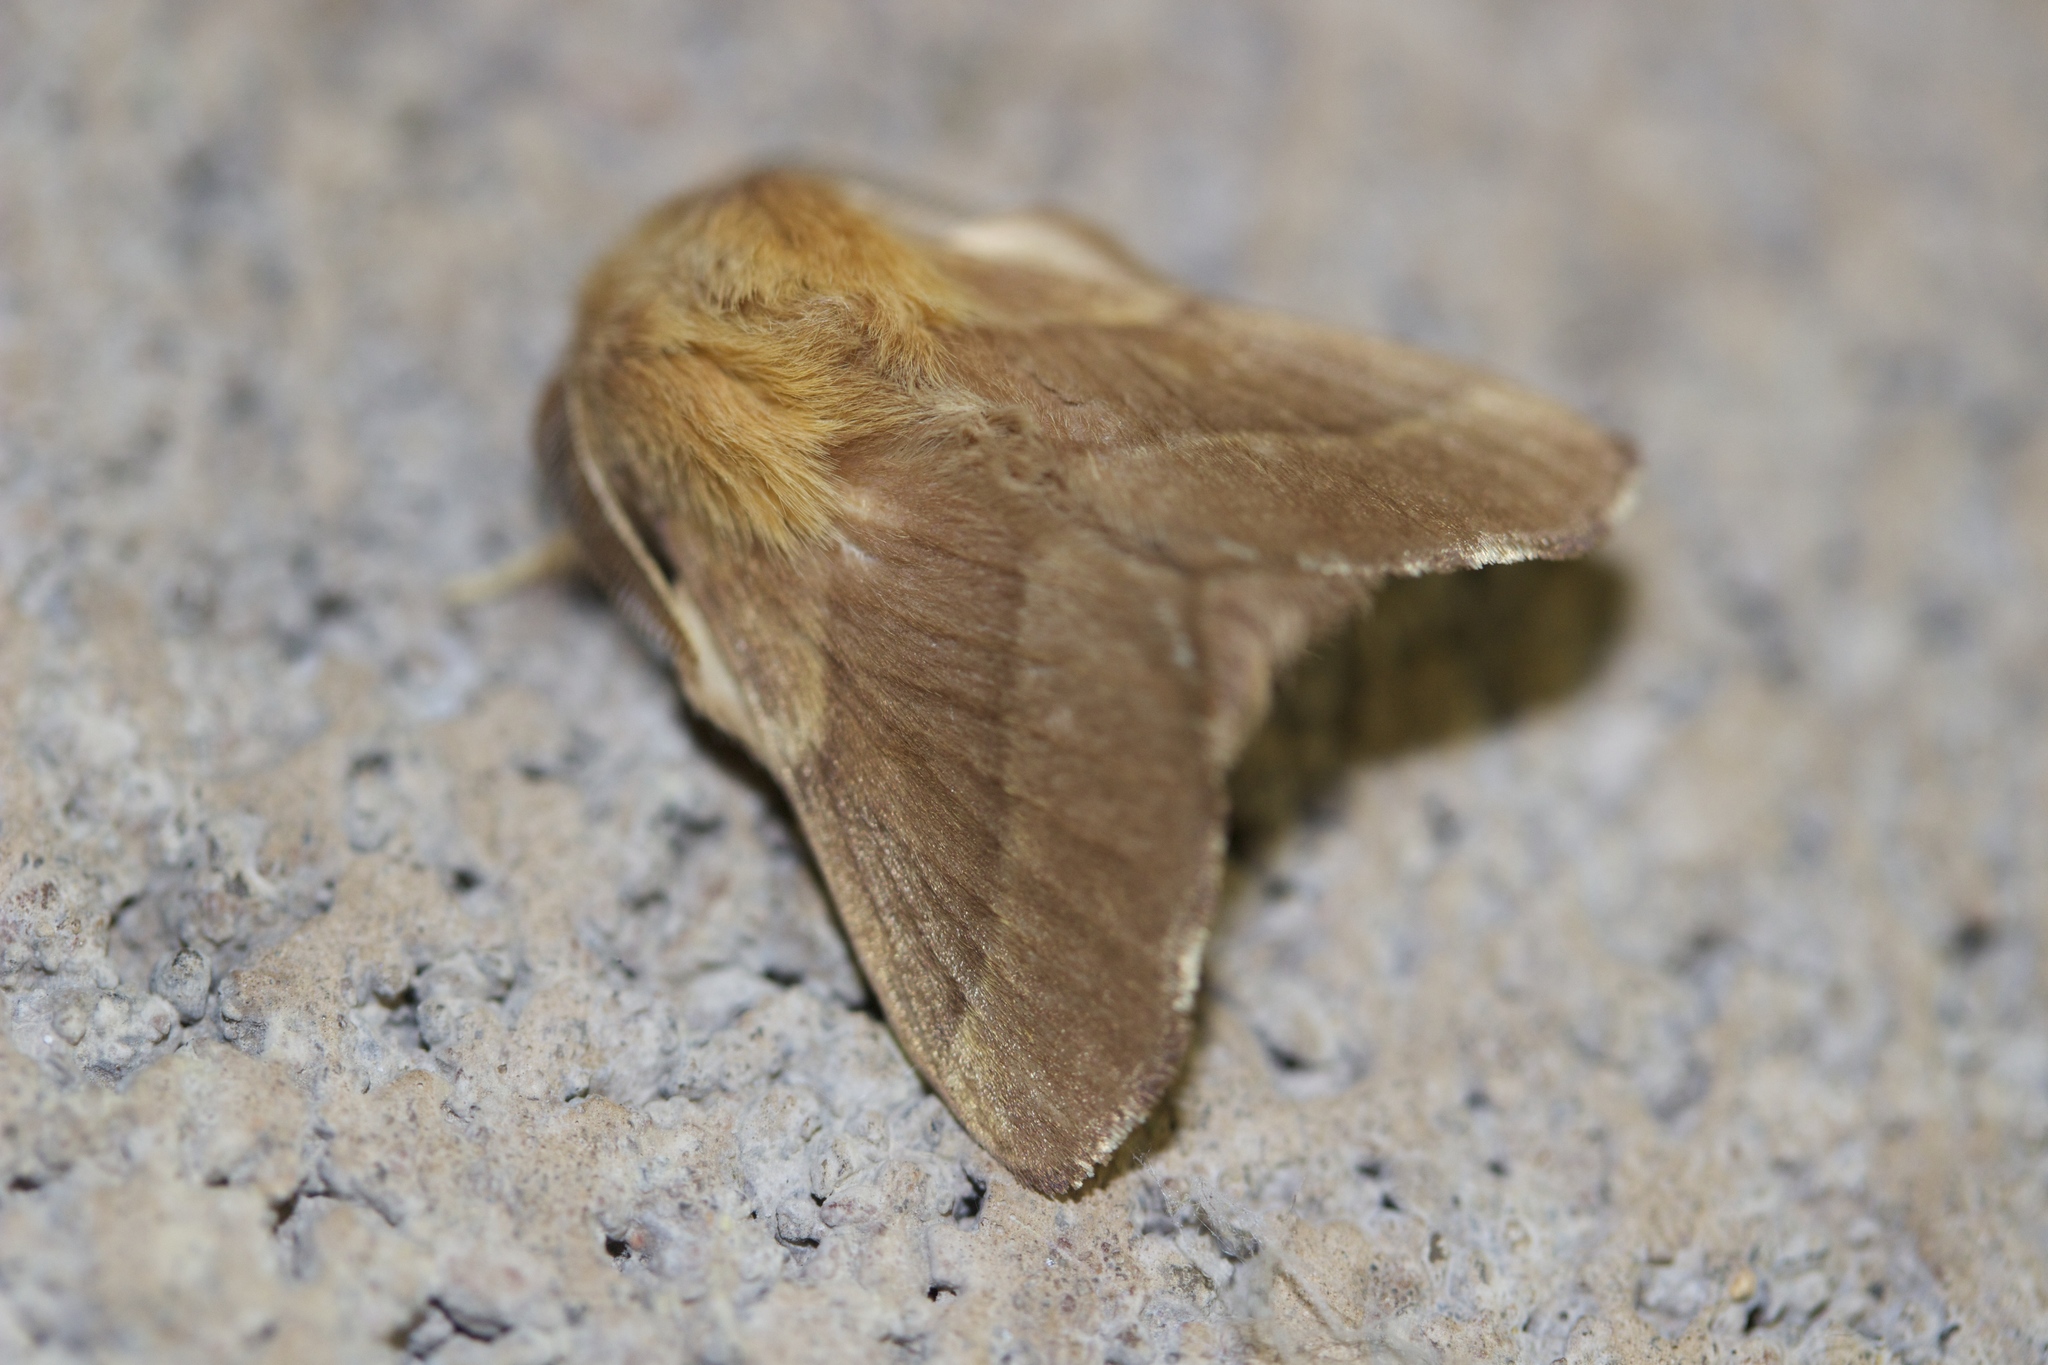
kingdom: Animalia
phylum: Arthropoda
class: Insecta
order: Lepidoptera
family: Lasiocampidae
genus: Malacosoma
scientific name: Malacosoma disstria
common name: Forest tent caterpillar
